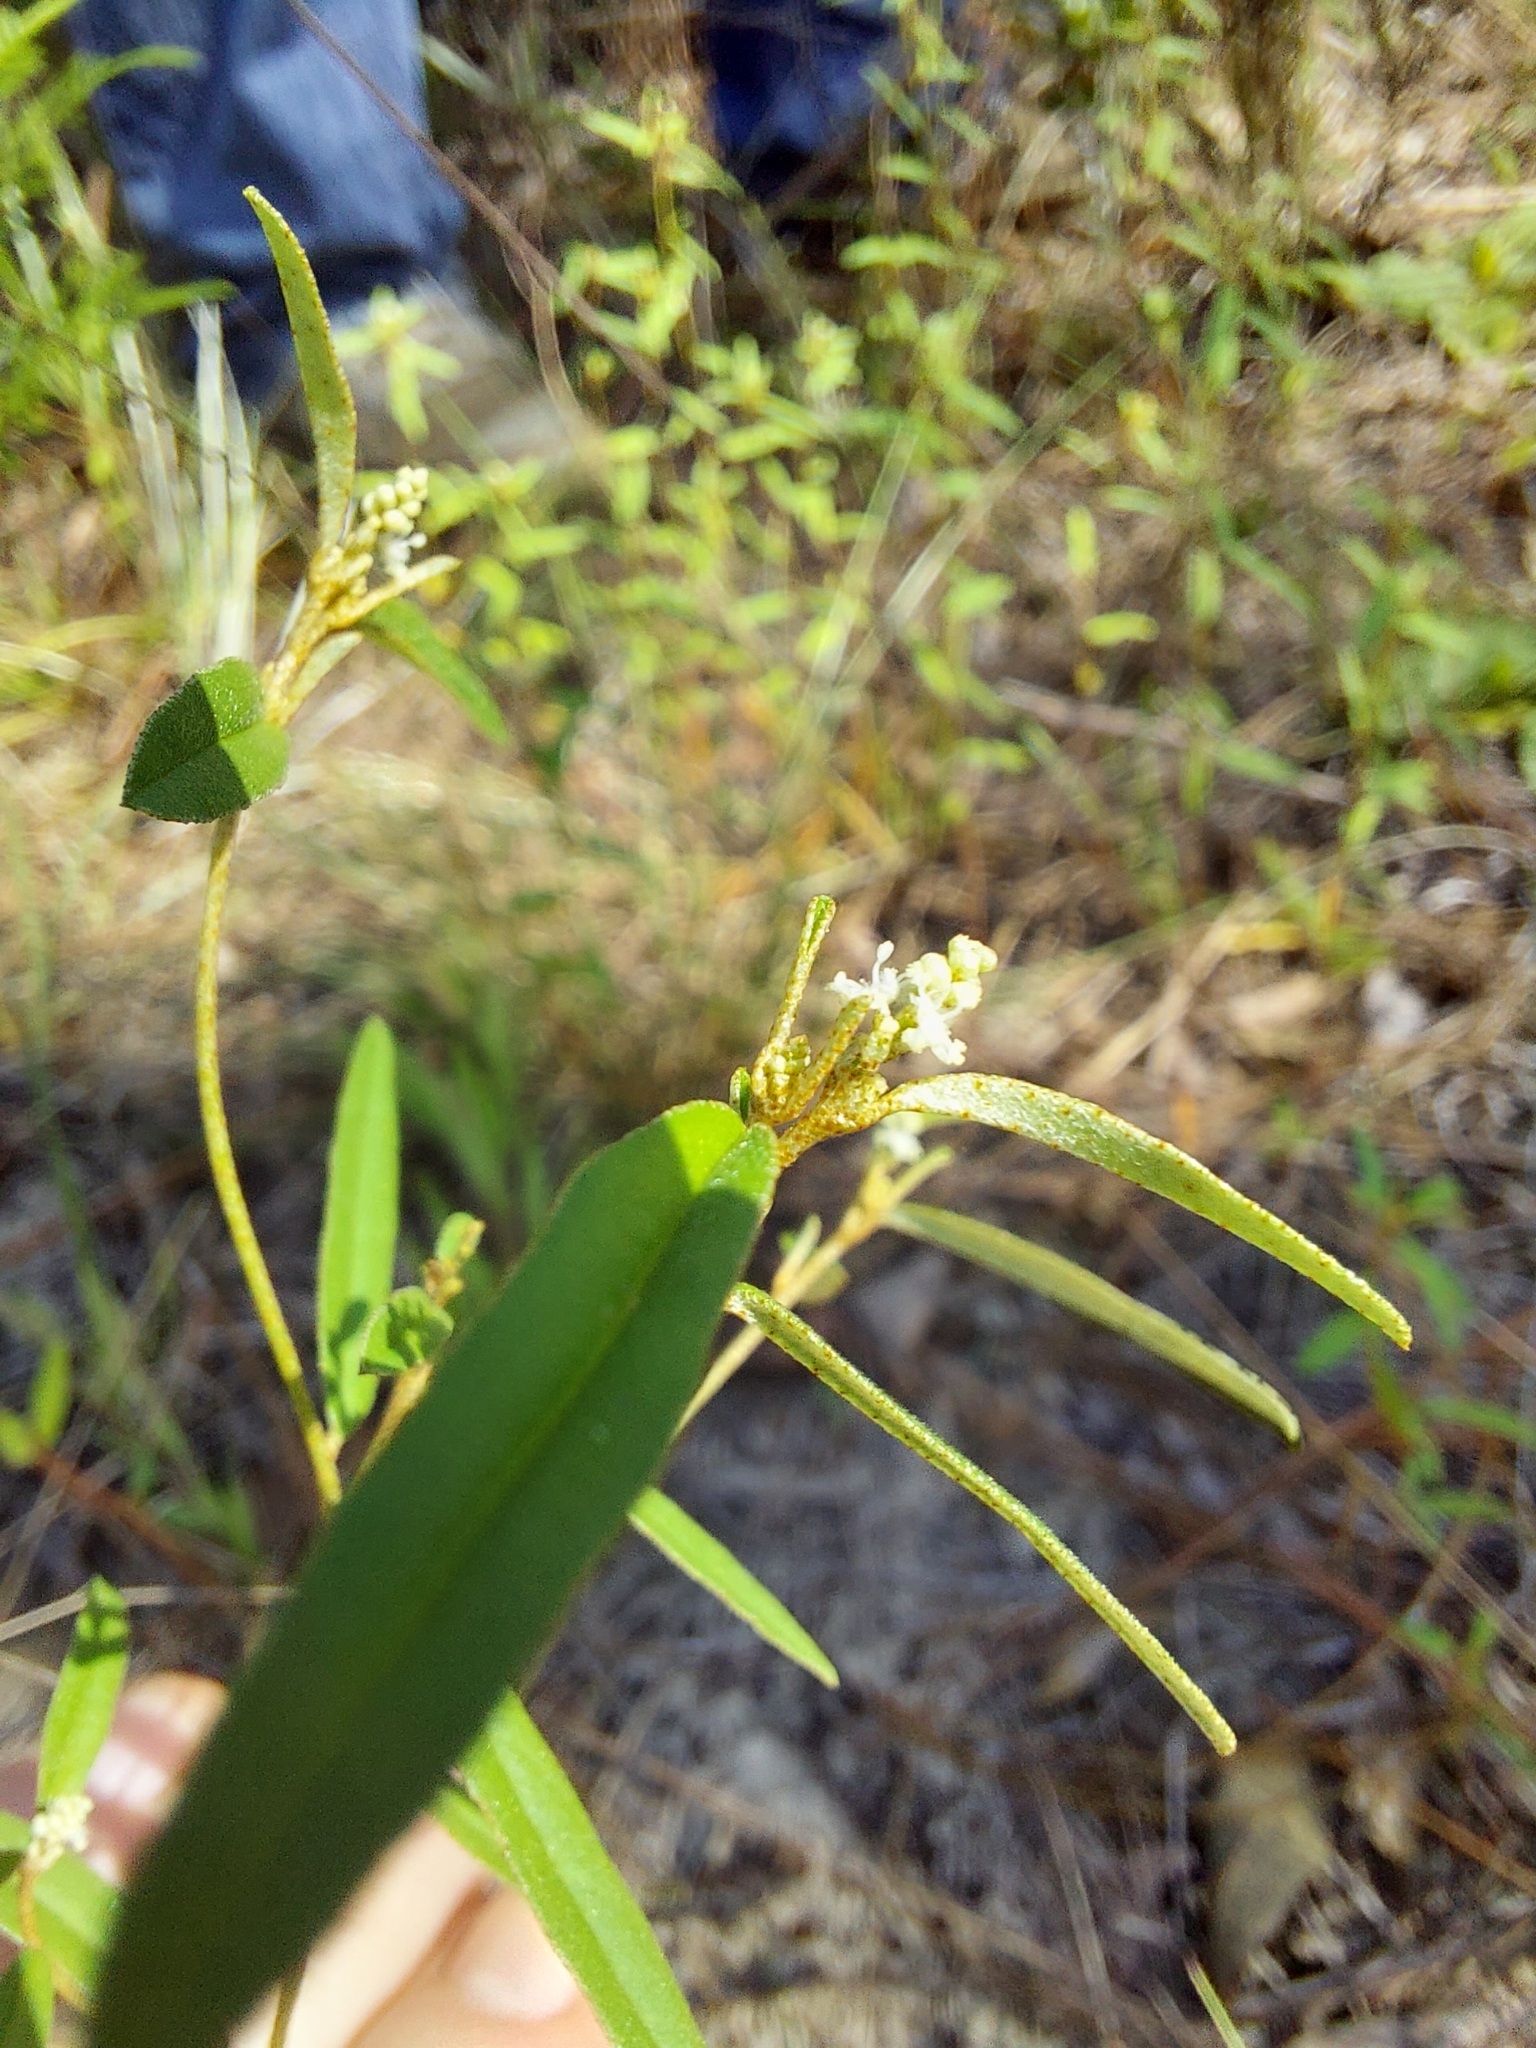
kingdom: Plantae
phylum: Tracheophyta
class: Magnoliopsida
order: Malpighiales
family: Euphorbiaceae
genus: Croton
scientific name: Croton michauxii
